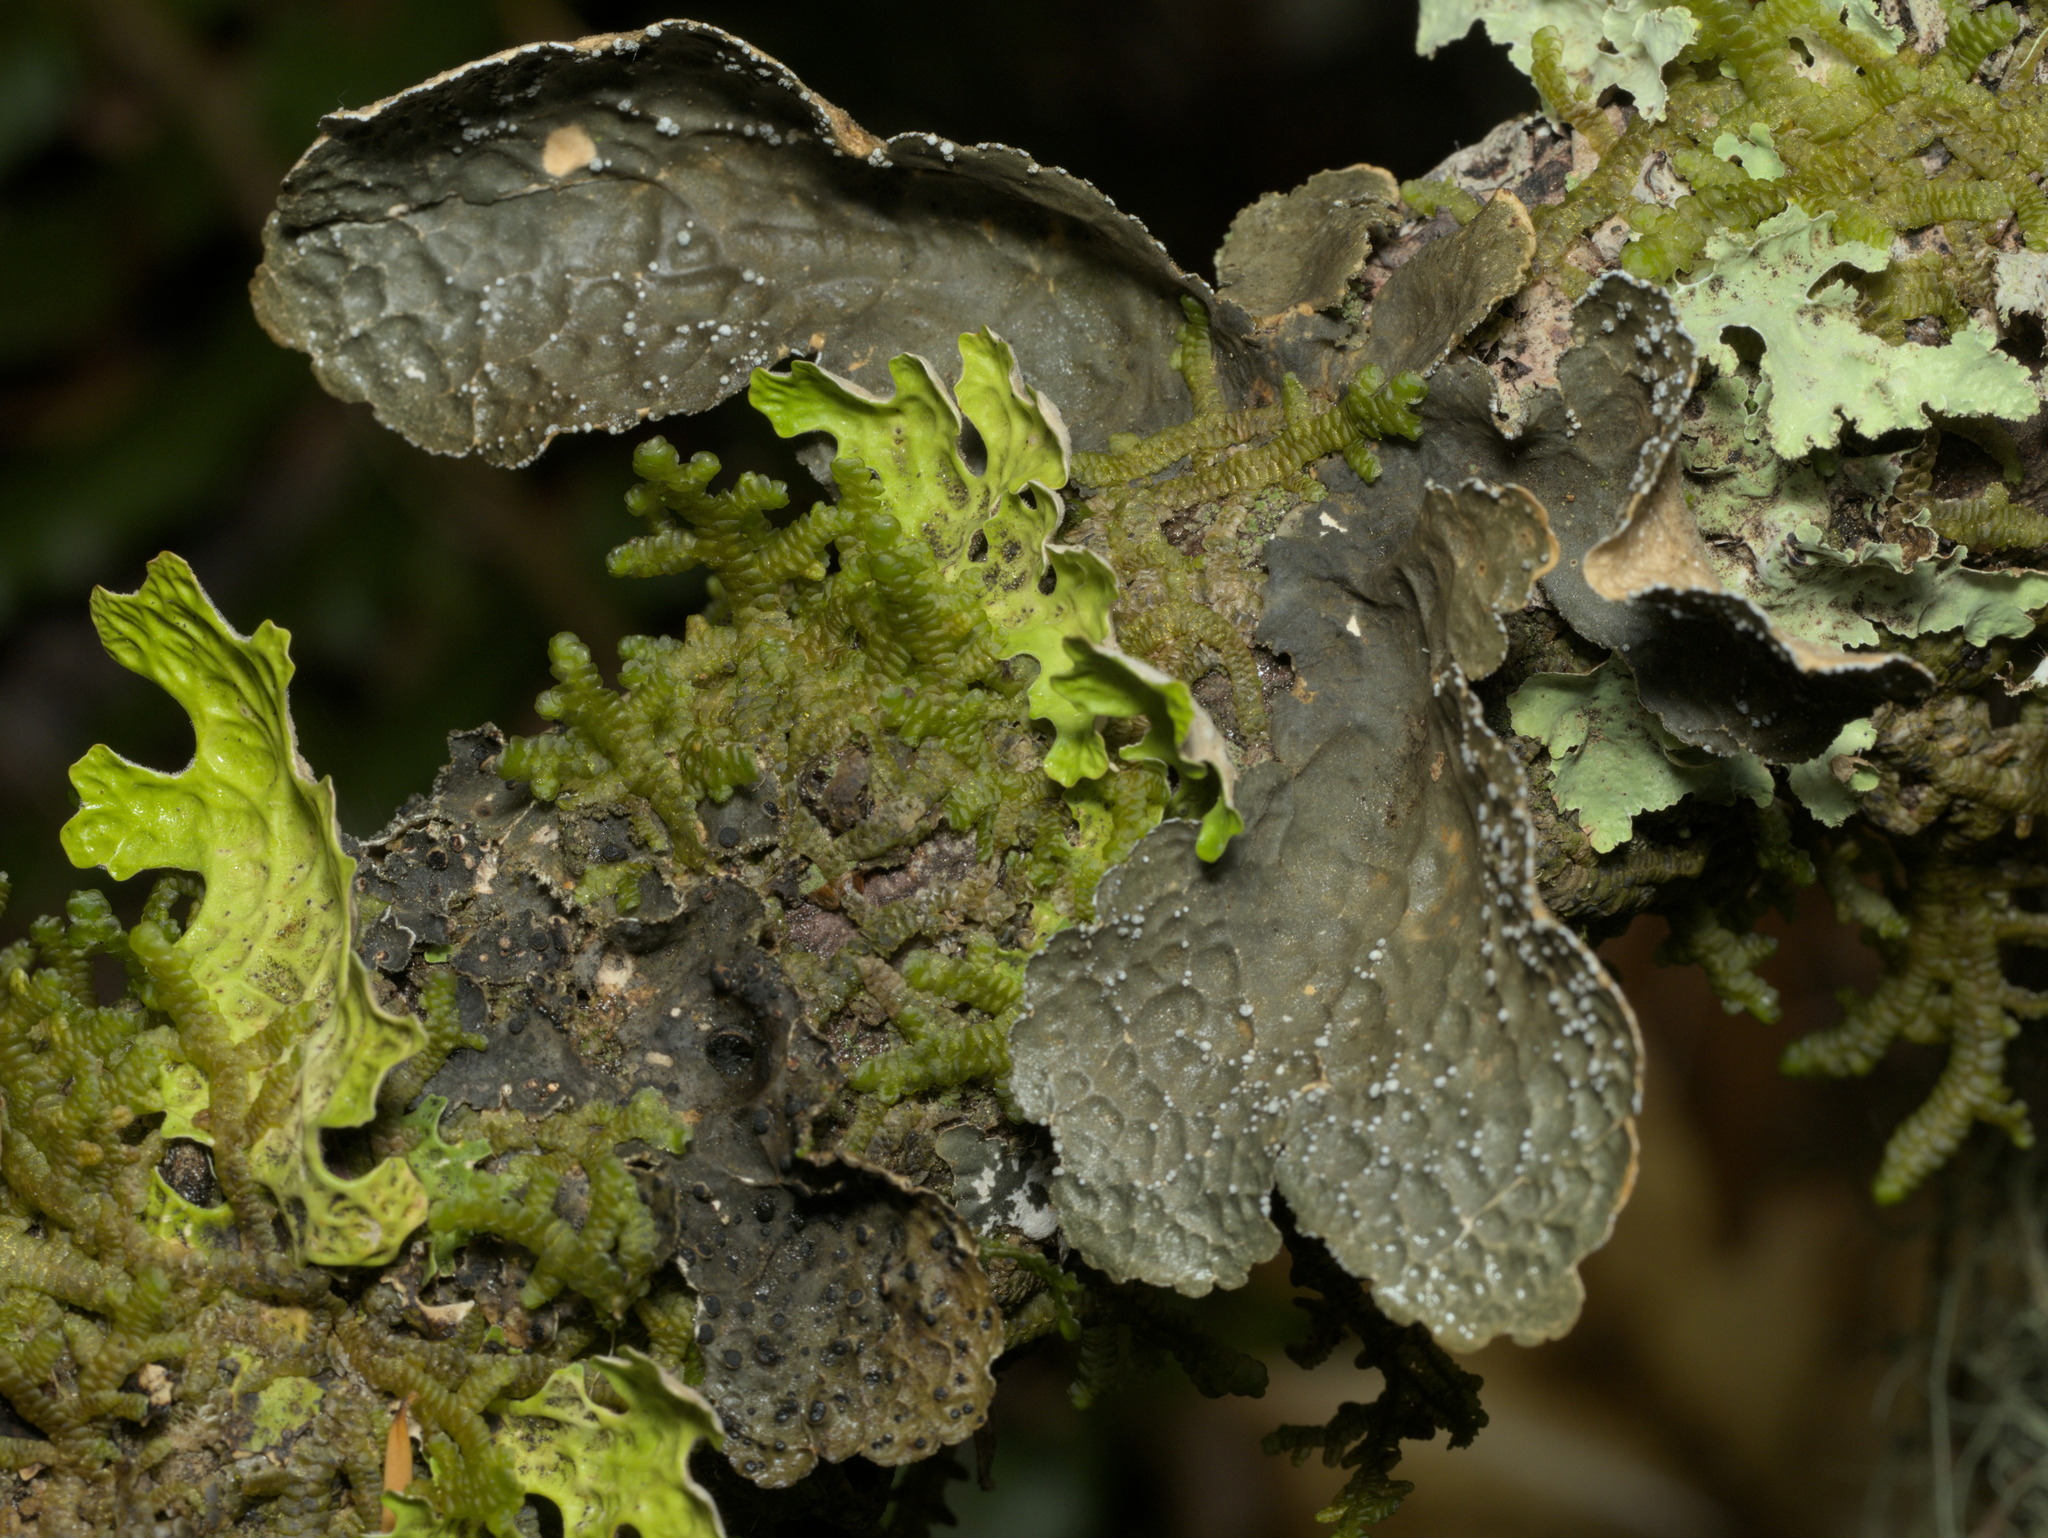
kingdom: Fungi
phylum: Ascomycota
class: Lecanoromycetes
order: Peltigerales
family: Lobariaceae
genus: Lobaria
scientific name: Lobaria anomala
